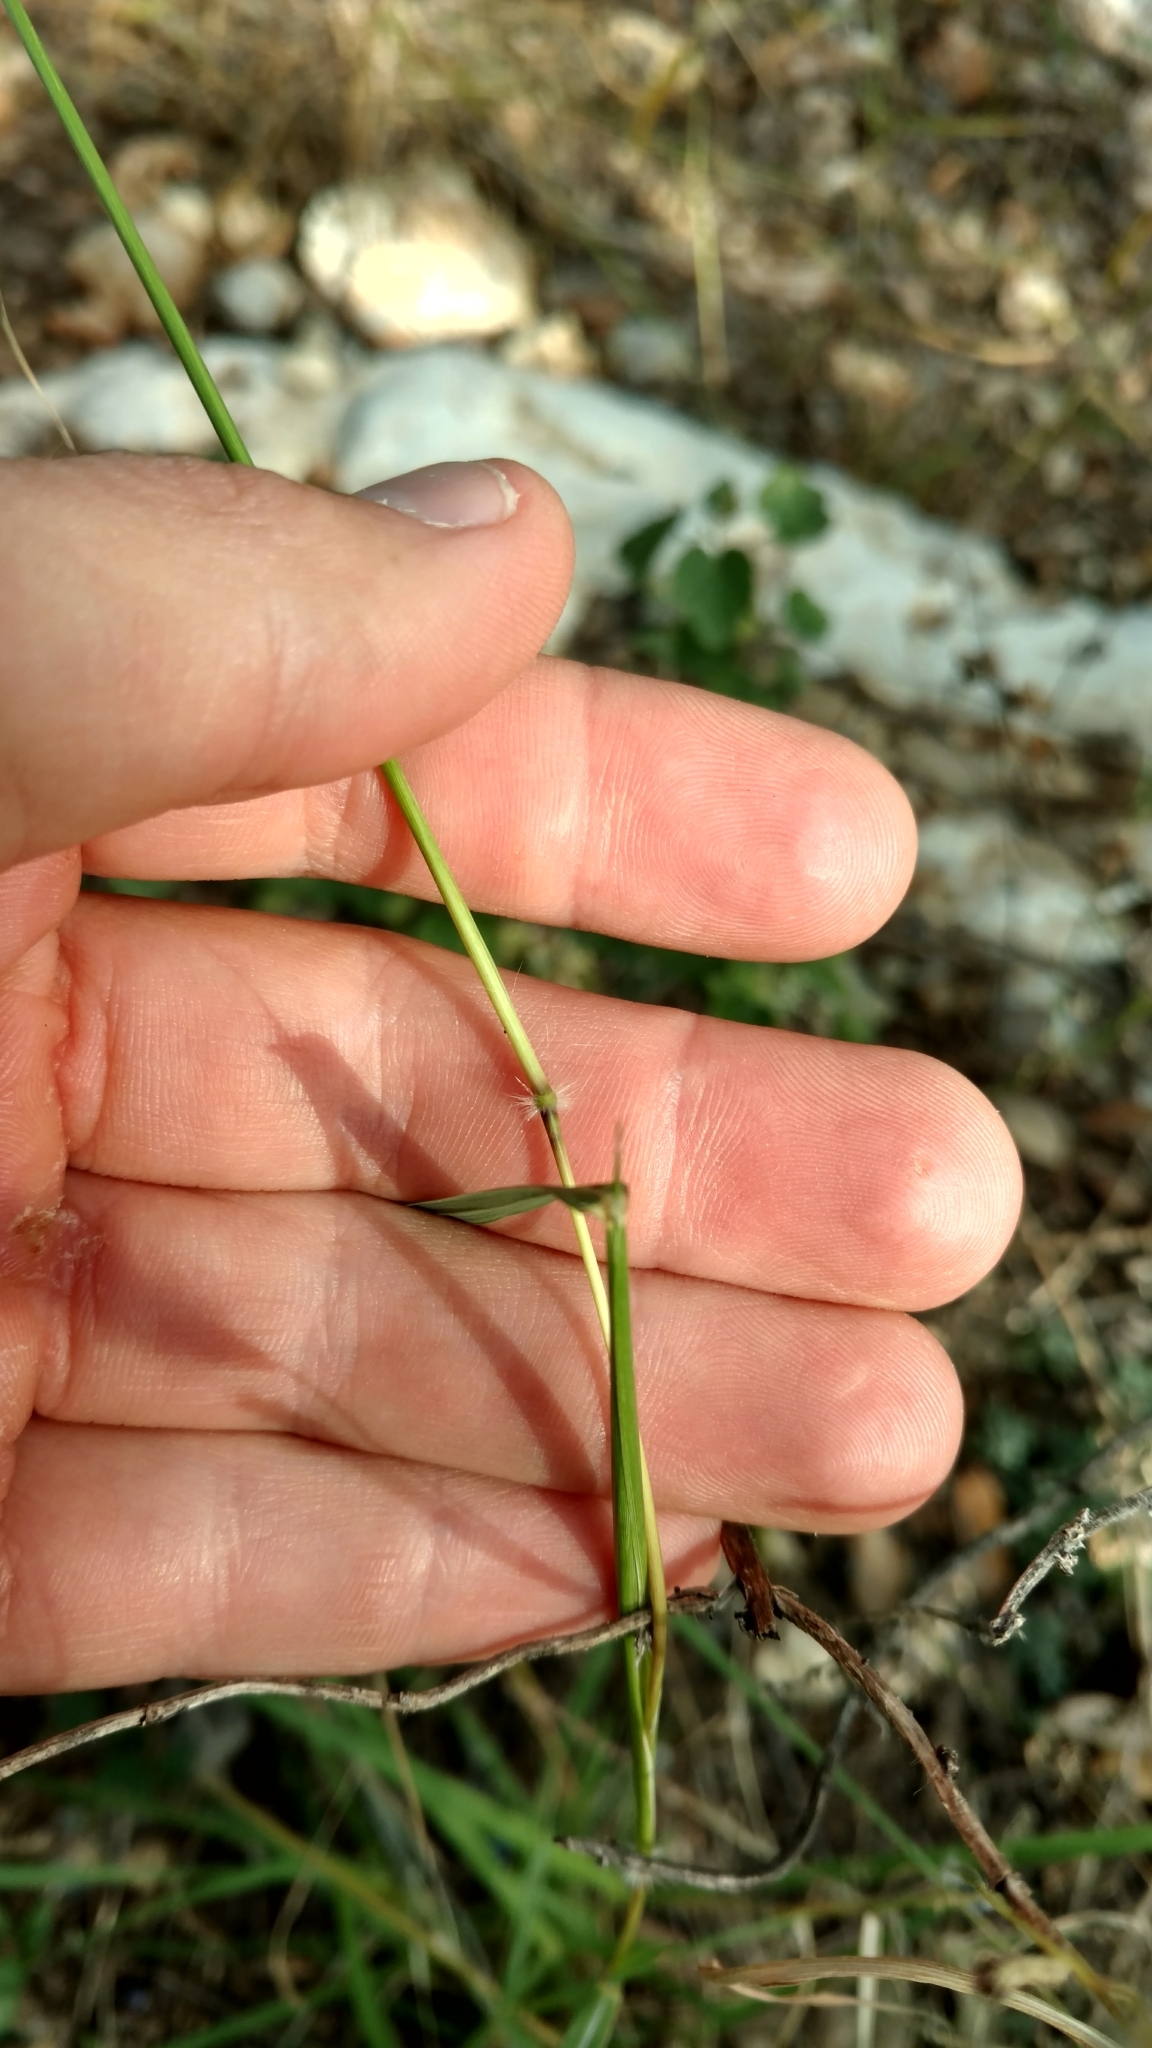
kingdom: Plantae
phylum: Tracheophyta
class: Liliopsida
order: Poales
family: Poaceae
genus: Dichanthium
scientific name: Dichanthium sericeum
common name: Silky bluestem
